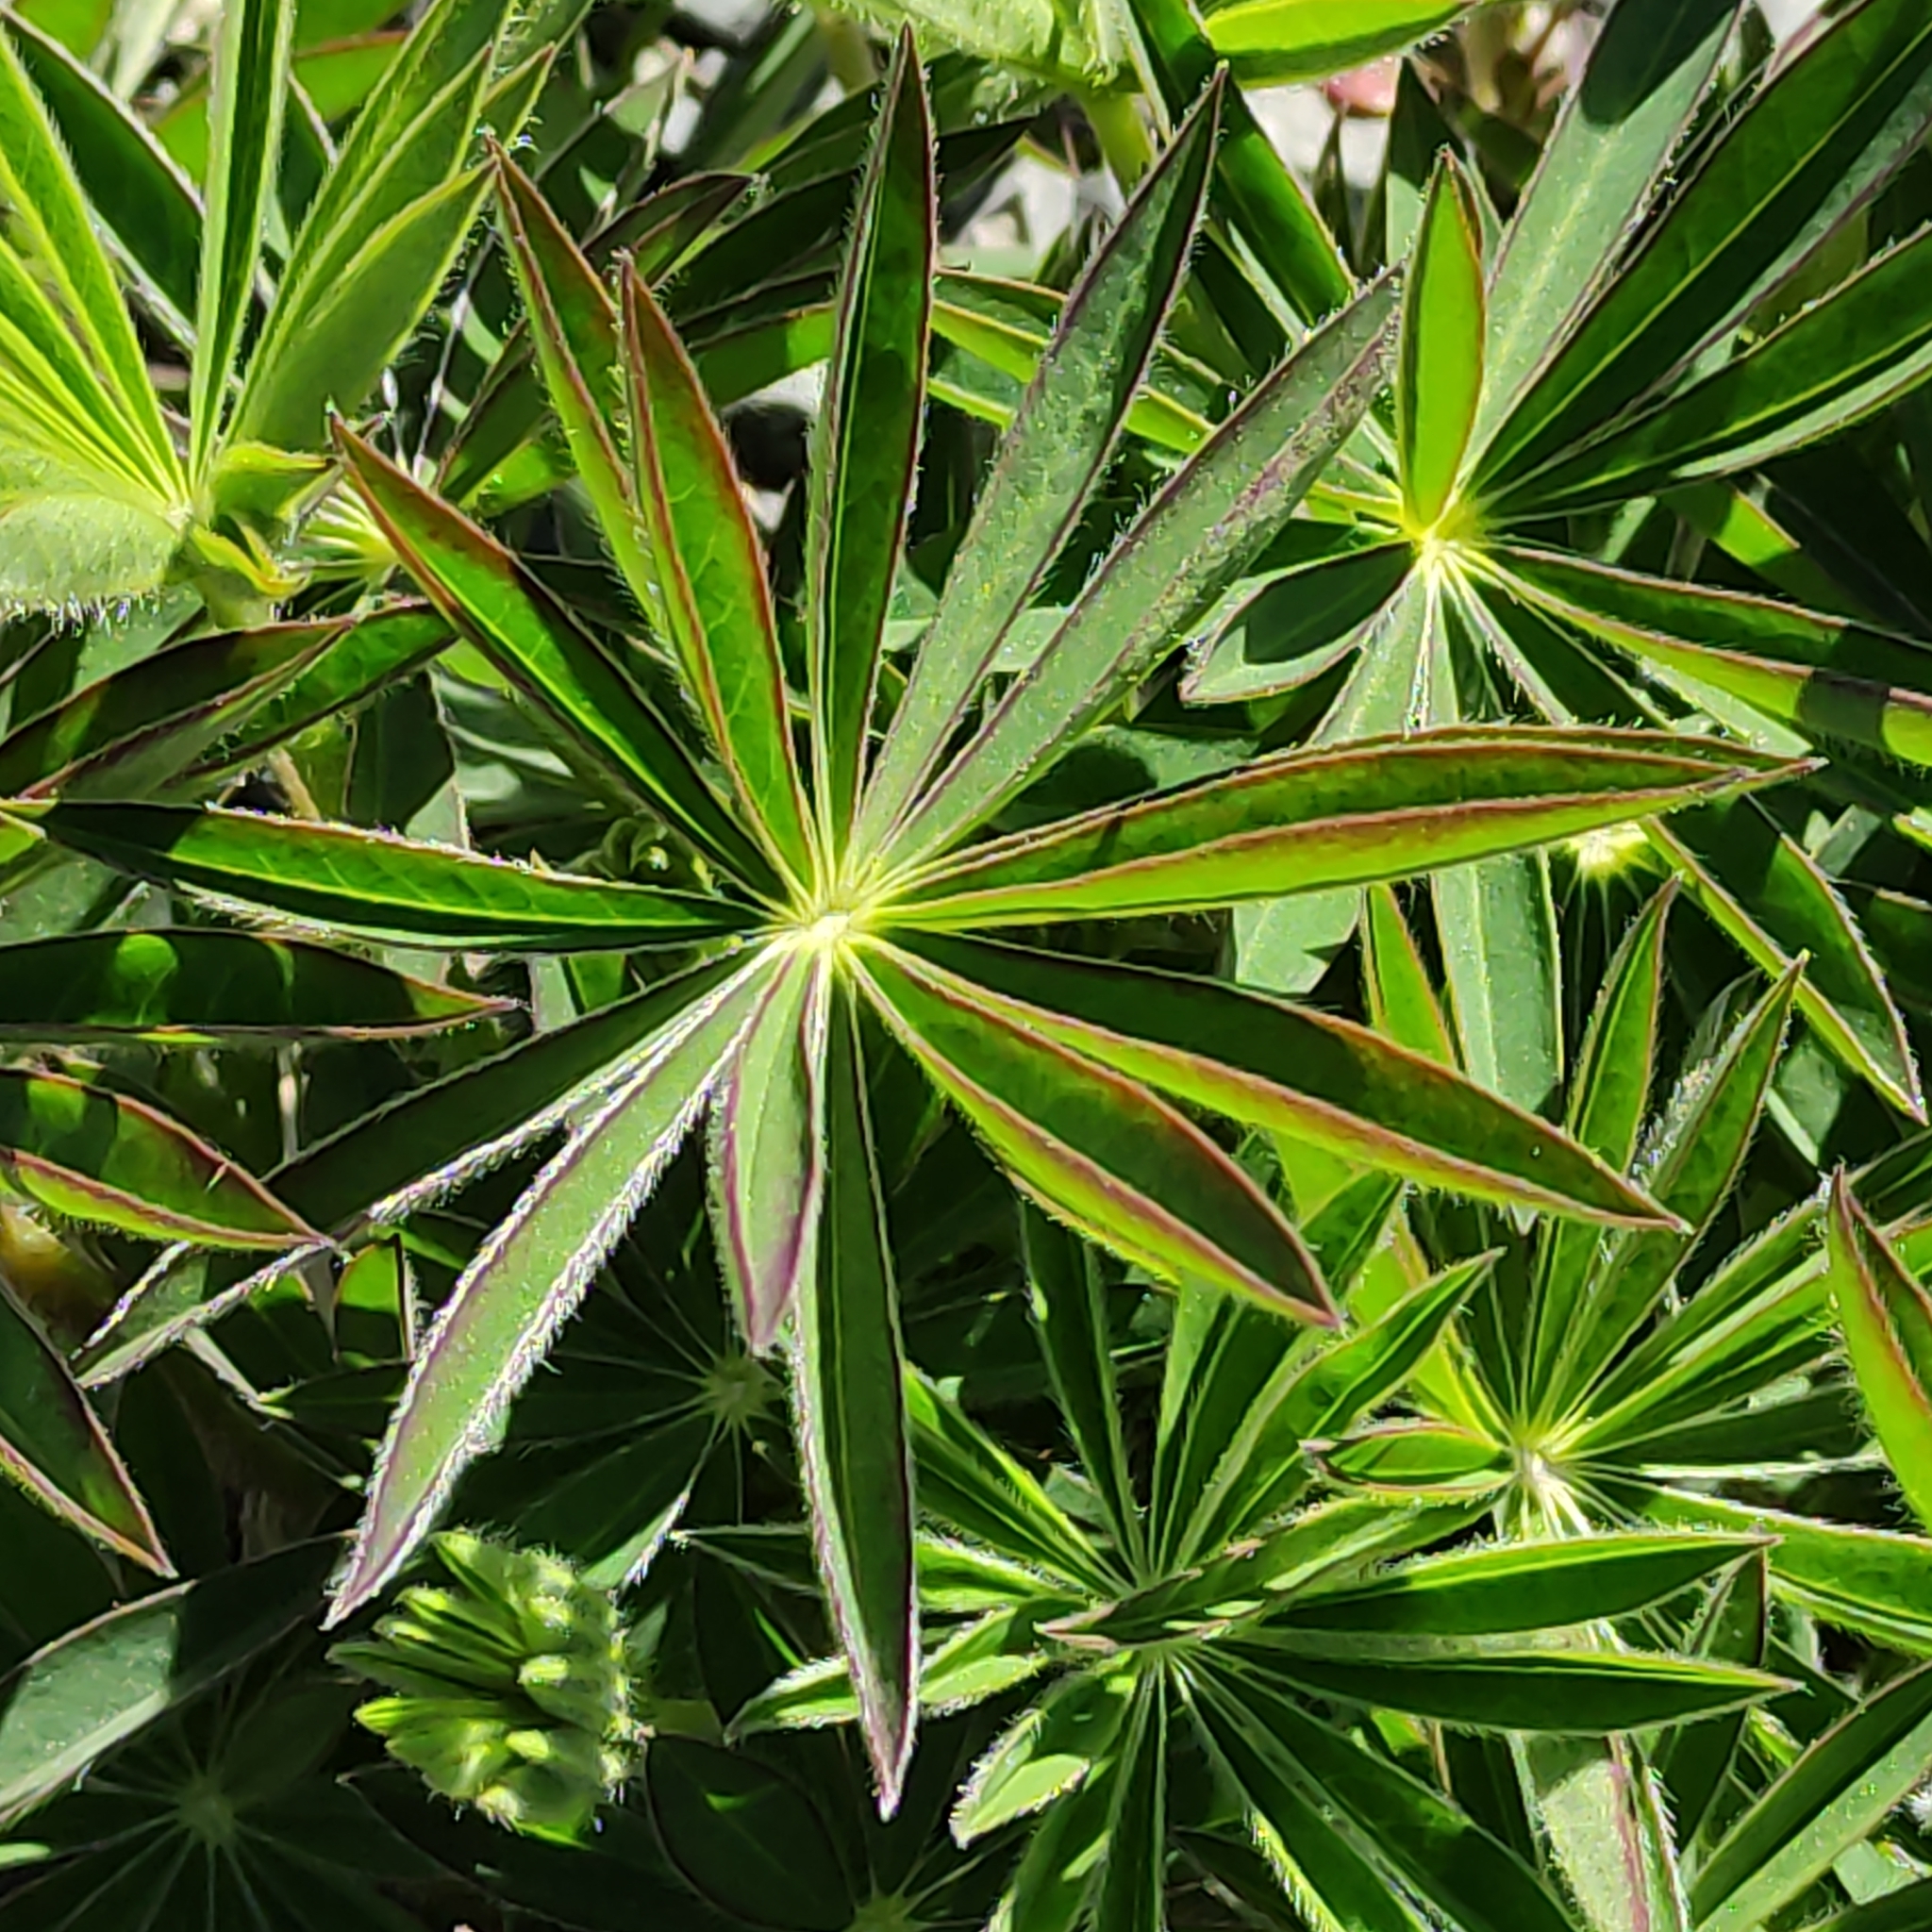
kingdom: Plantae
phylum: Tracheophyta
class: Magnoliopsida
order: Fabales
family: Fabaceae
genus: Lupinus
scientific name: Lupinus polyphyllus
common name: Garden lupin
